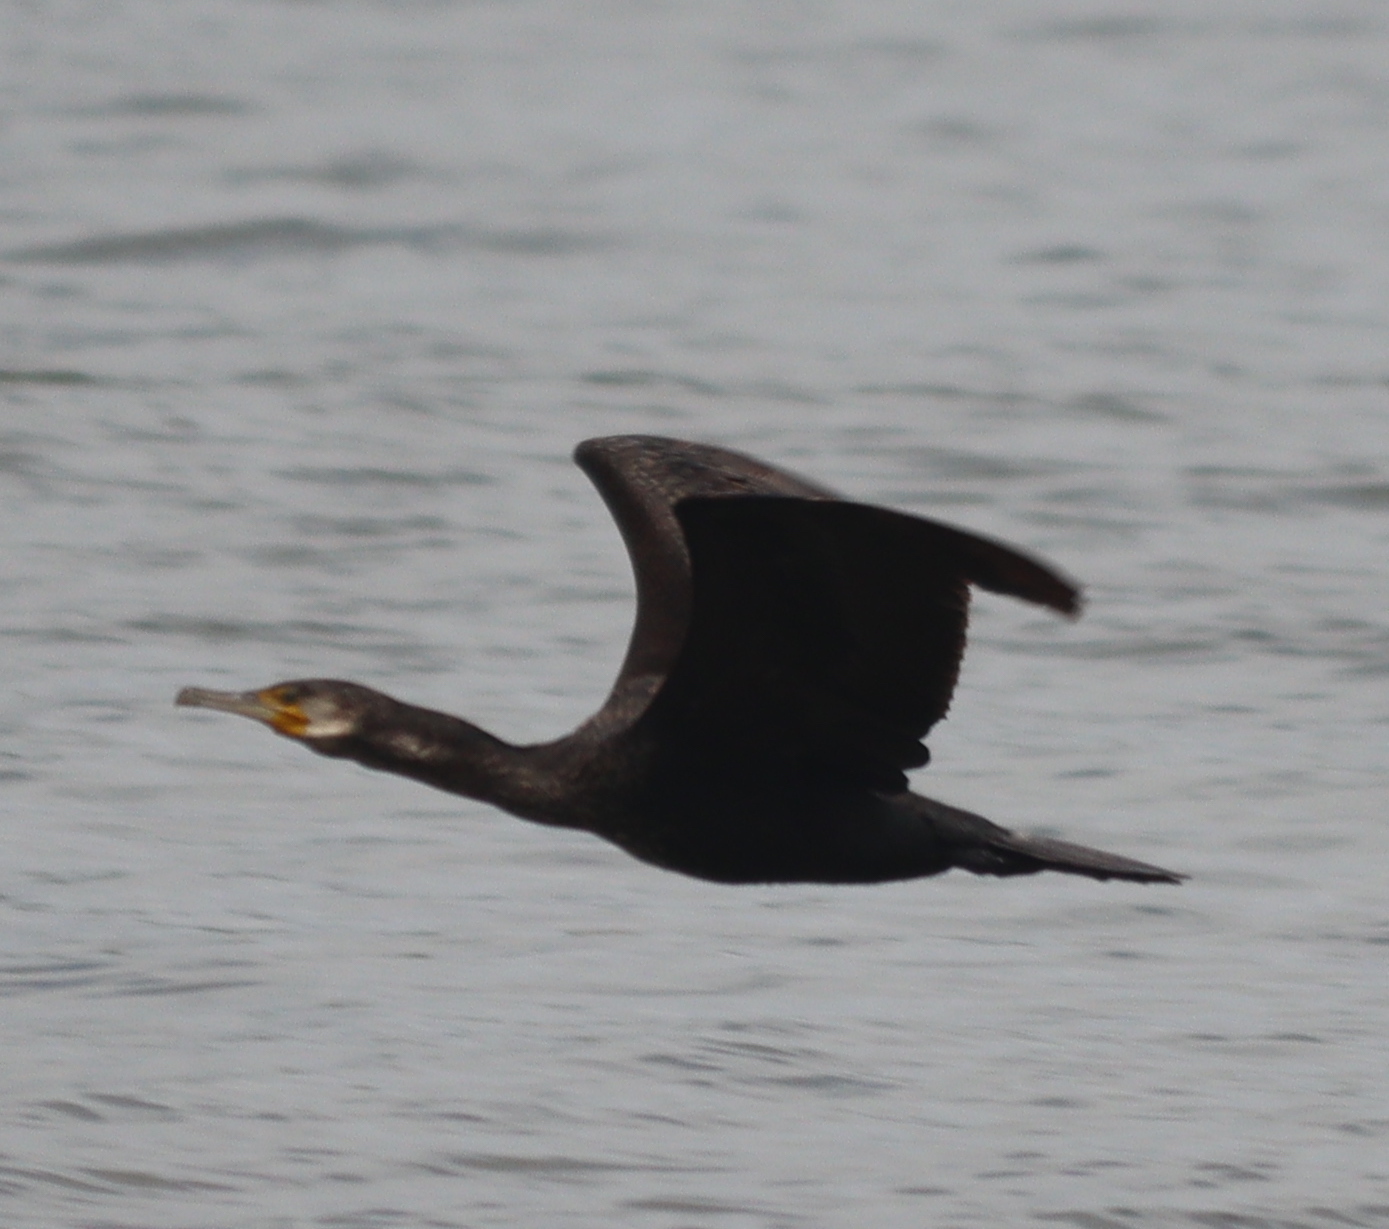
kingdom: Animalia
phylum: Chordata
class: Aves
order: Suliformes
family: Phalacrocoracidae
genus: Phalacrocorax
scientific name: Phalacrocorax carbo
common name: Great cormorant
